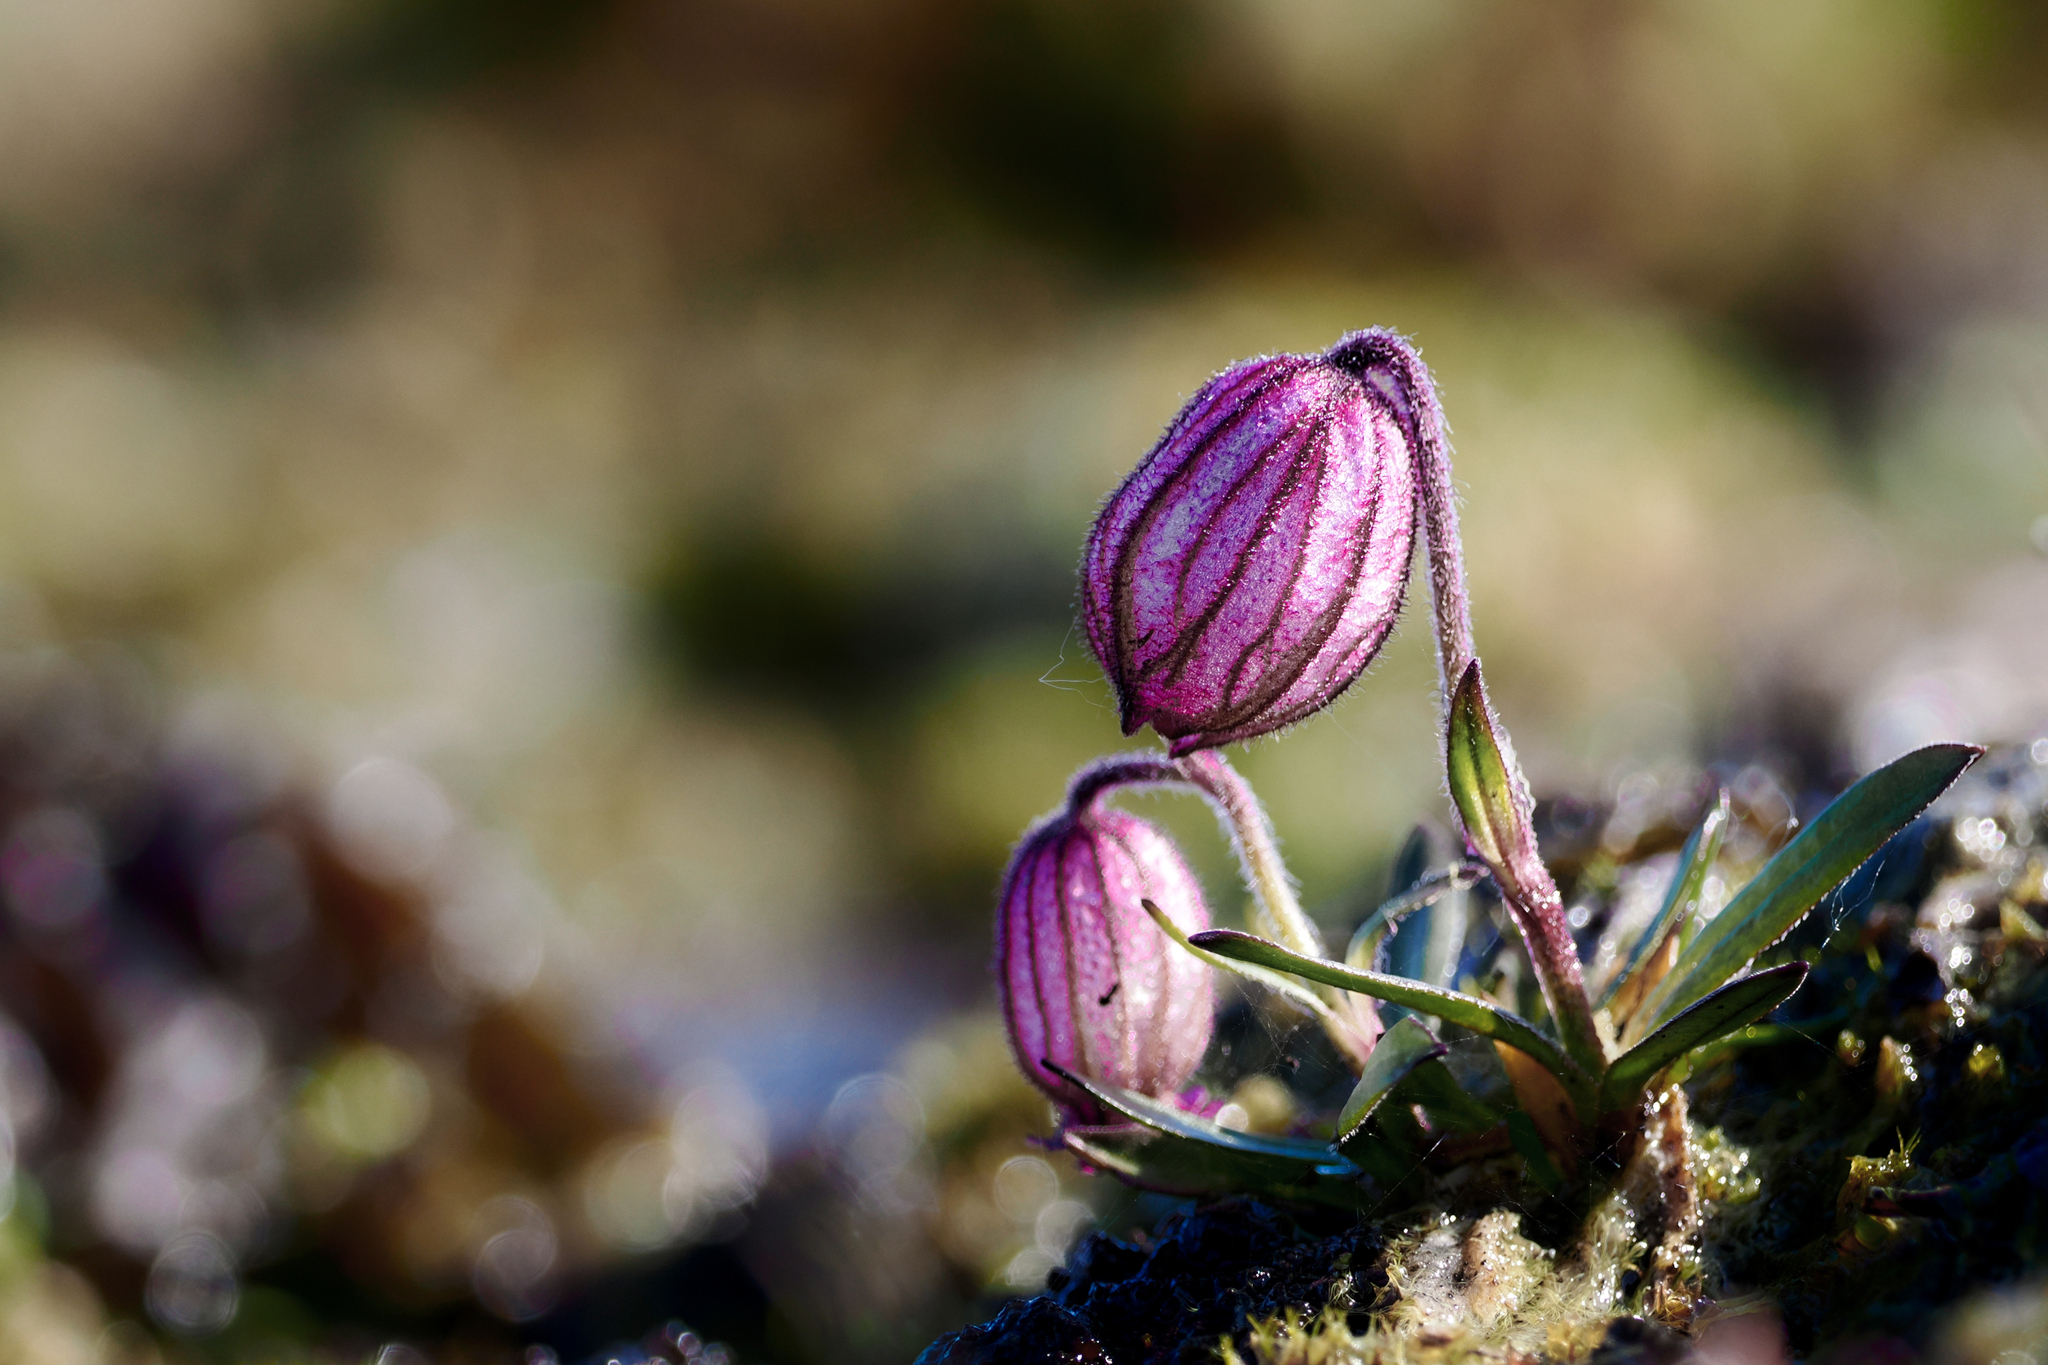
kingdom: Plantae
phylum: Tracheophyta
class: Magnoliopsida
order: Caryophyllales
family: Caryophyllaceae
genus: Silene
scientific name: Silene uralensis
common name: Nodding campion
